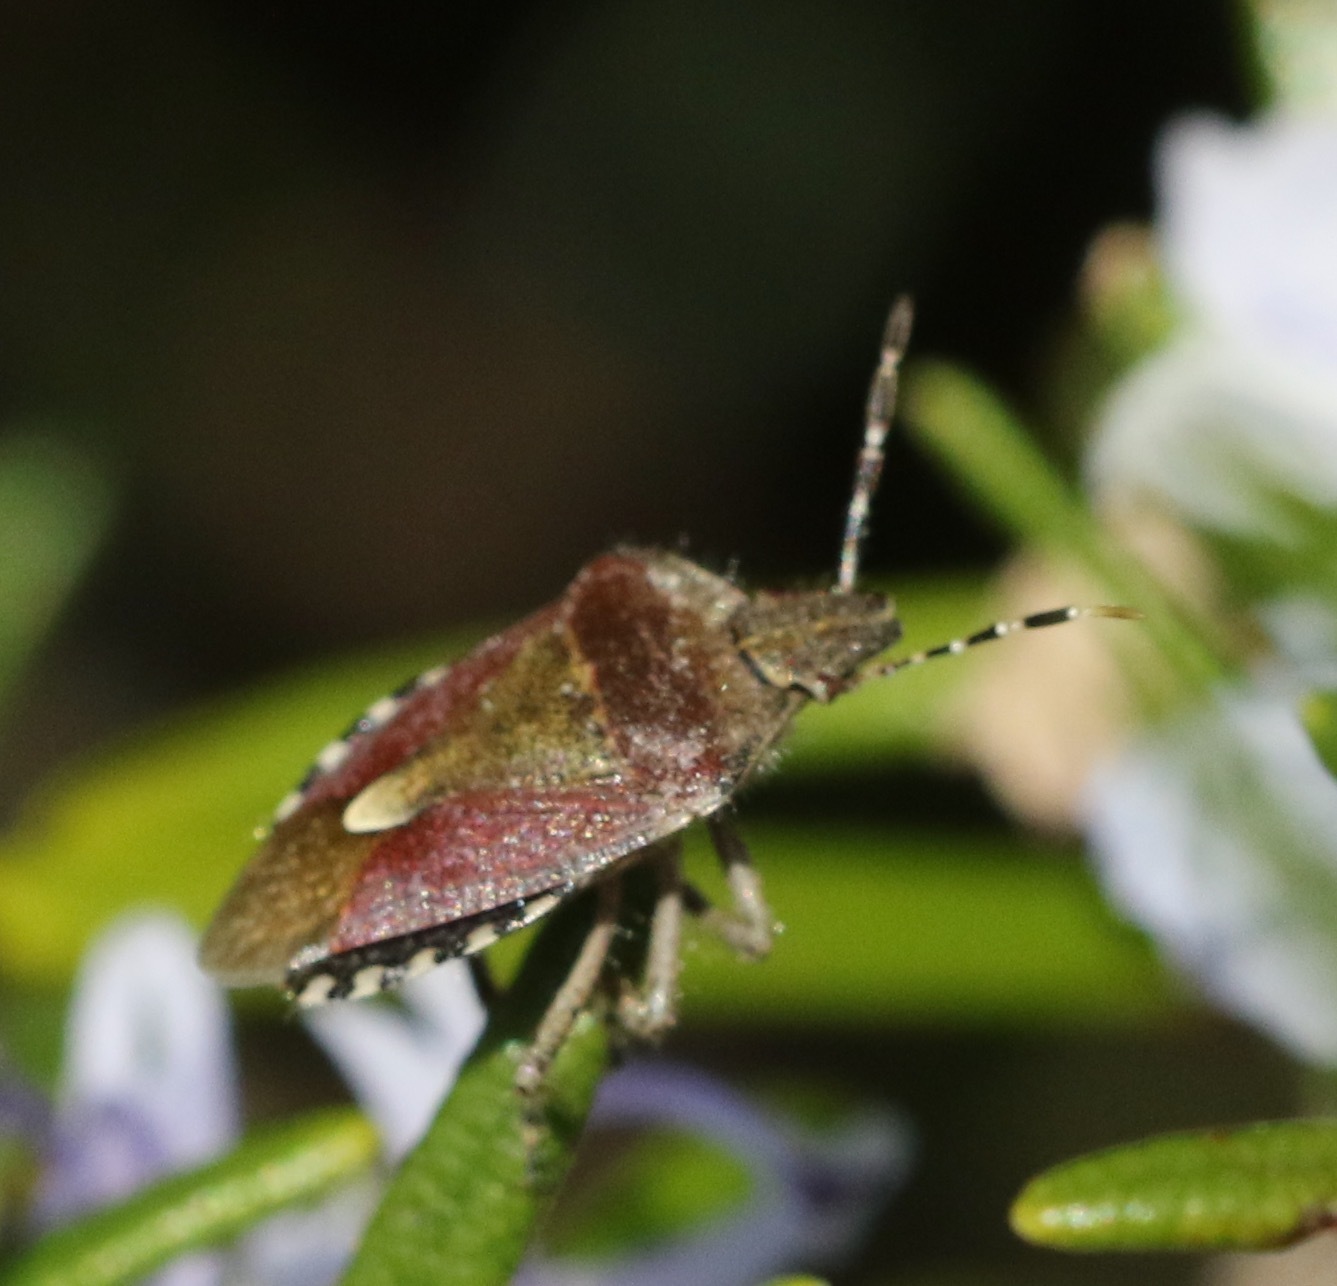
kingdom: Animalia
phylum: Arthropoda
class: Insecta
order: Hemiptera
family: Pentatomidae
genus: Dolycoris
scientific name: Dolycoris baccarum
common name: Sloe bug
